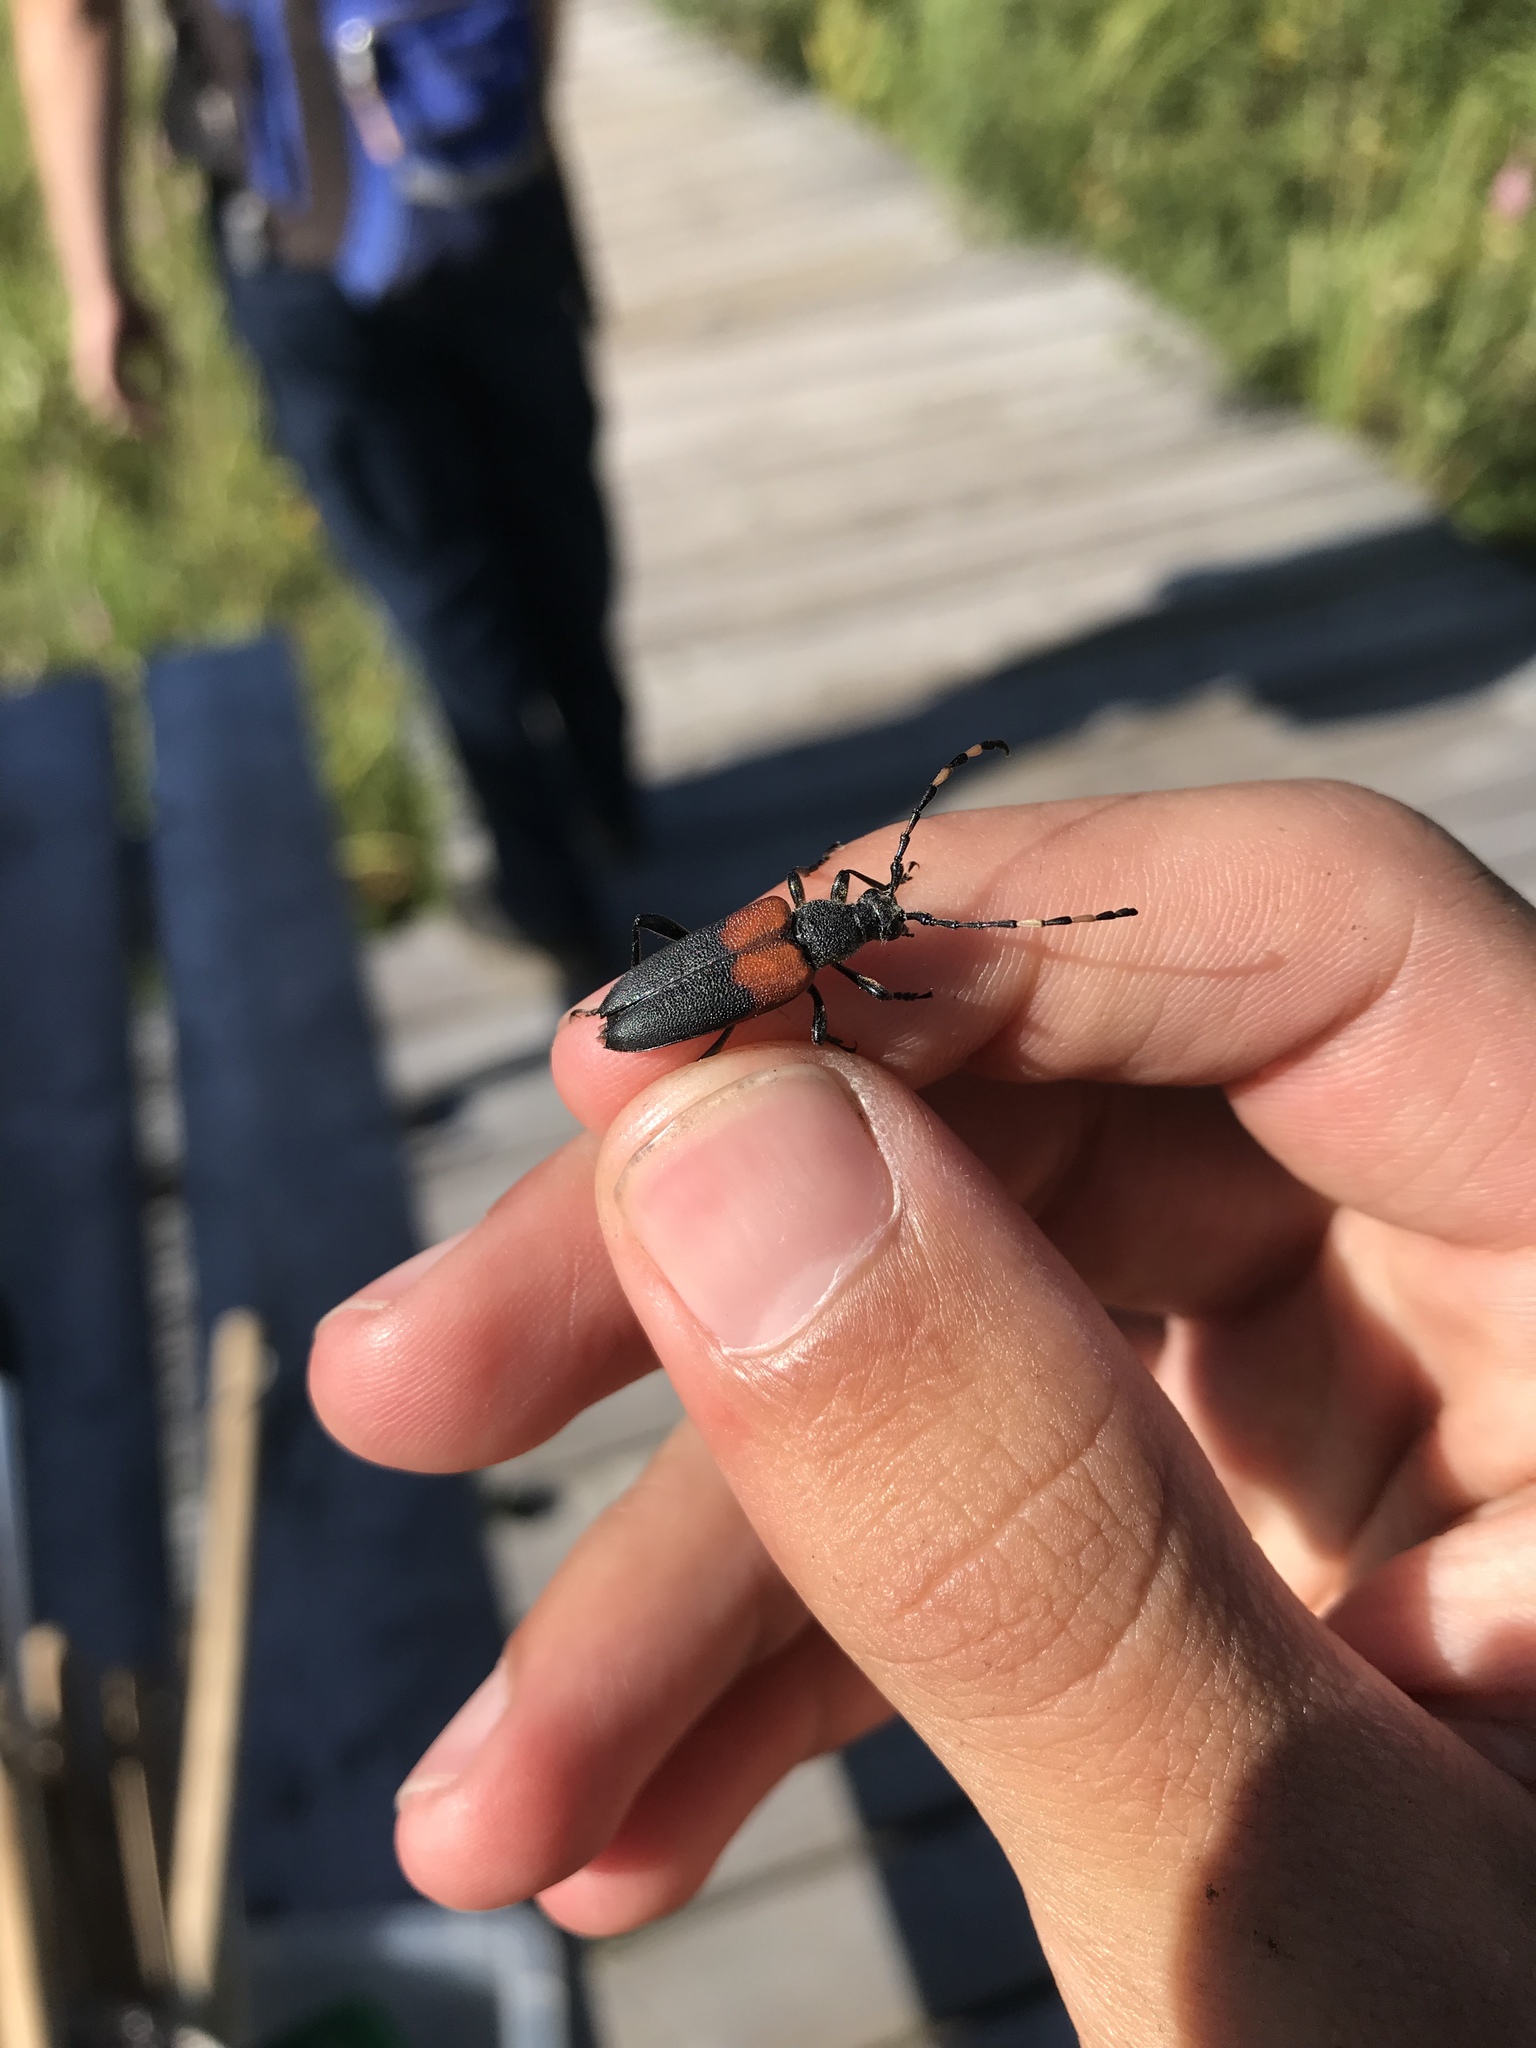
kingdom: Animalia
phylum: Arthropoda
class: Insecta
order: Coleoptera
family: Cerambycidae
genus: Stictoleptura
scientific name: Stictoleptura canadensis
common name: Red-shouldered pine borer
